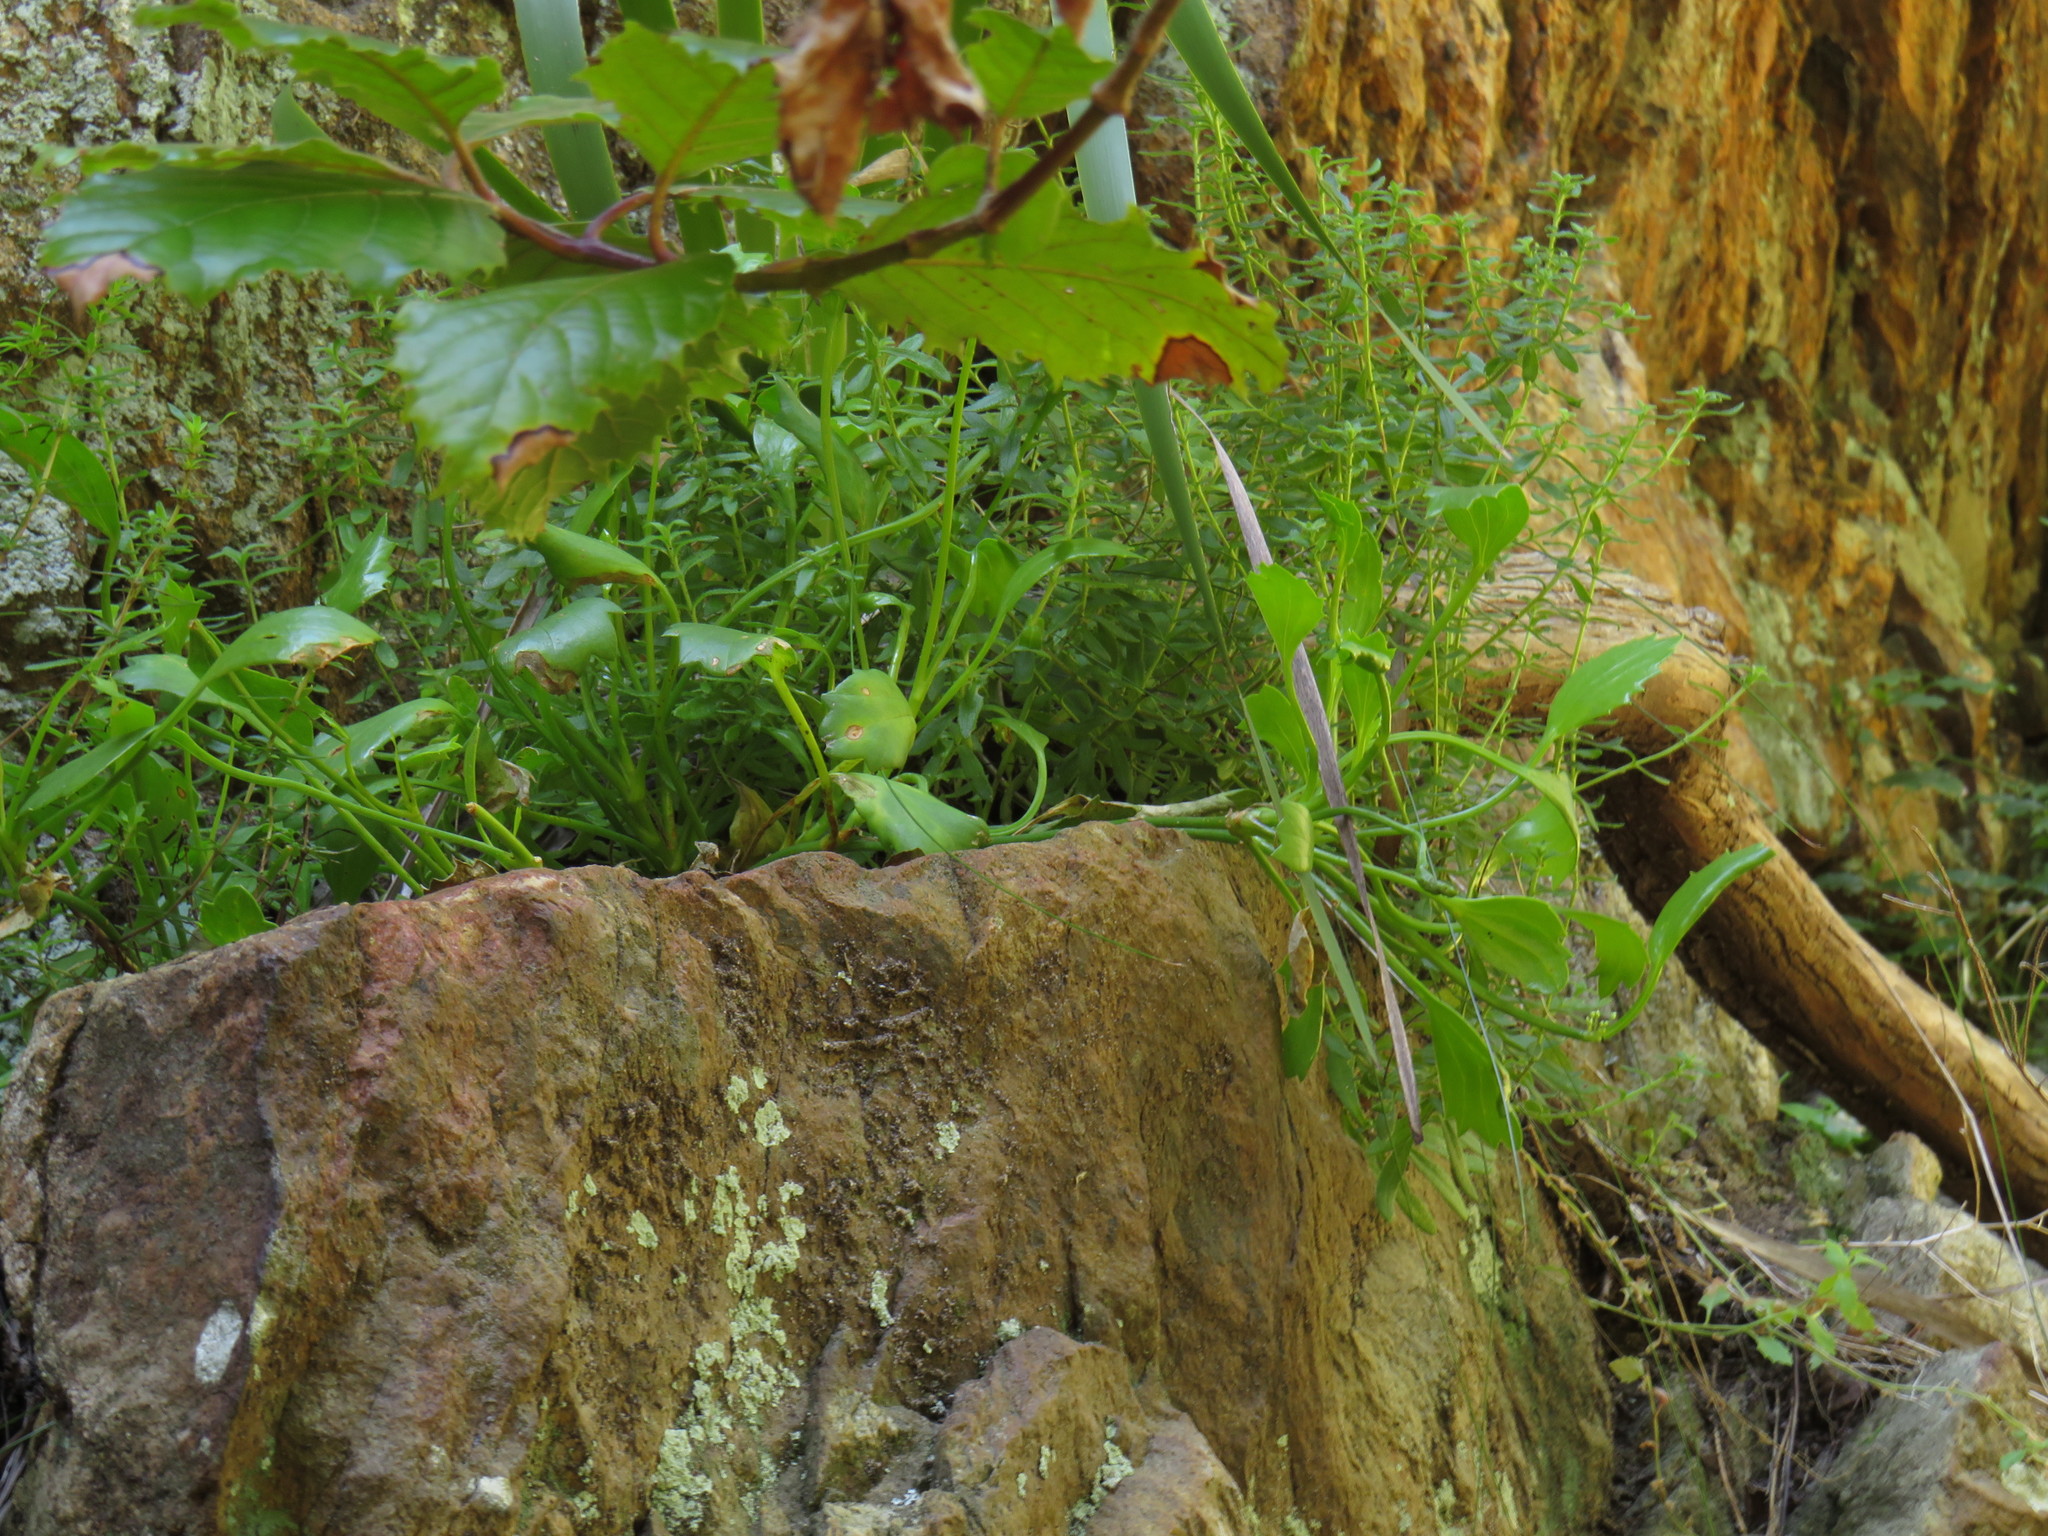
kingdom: Plantae
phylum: Tracheophyta
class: Magnoliopsida
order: Apiales
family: Apiaceae
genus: Centella
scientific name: Centella triloba
